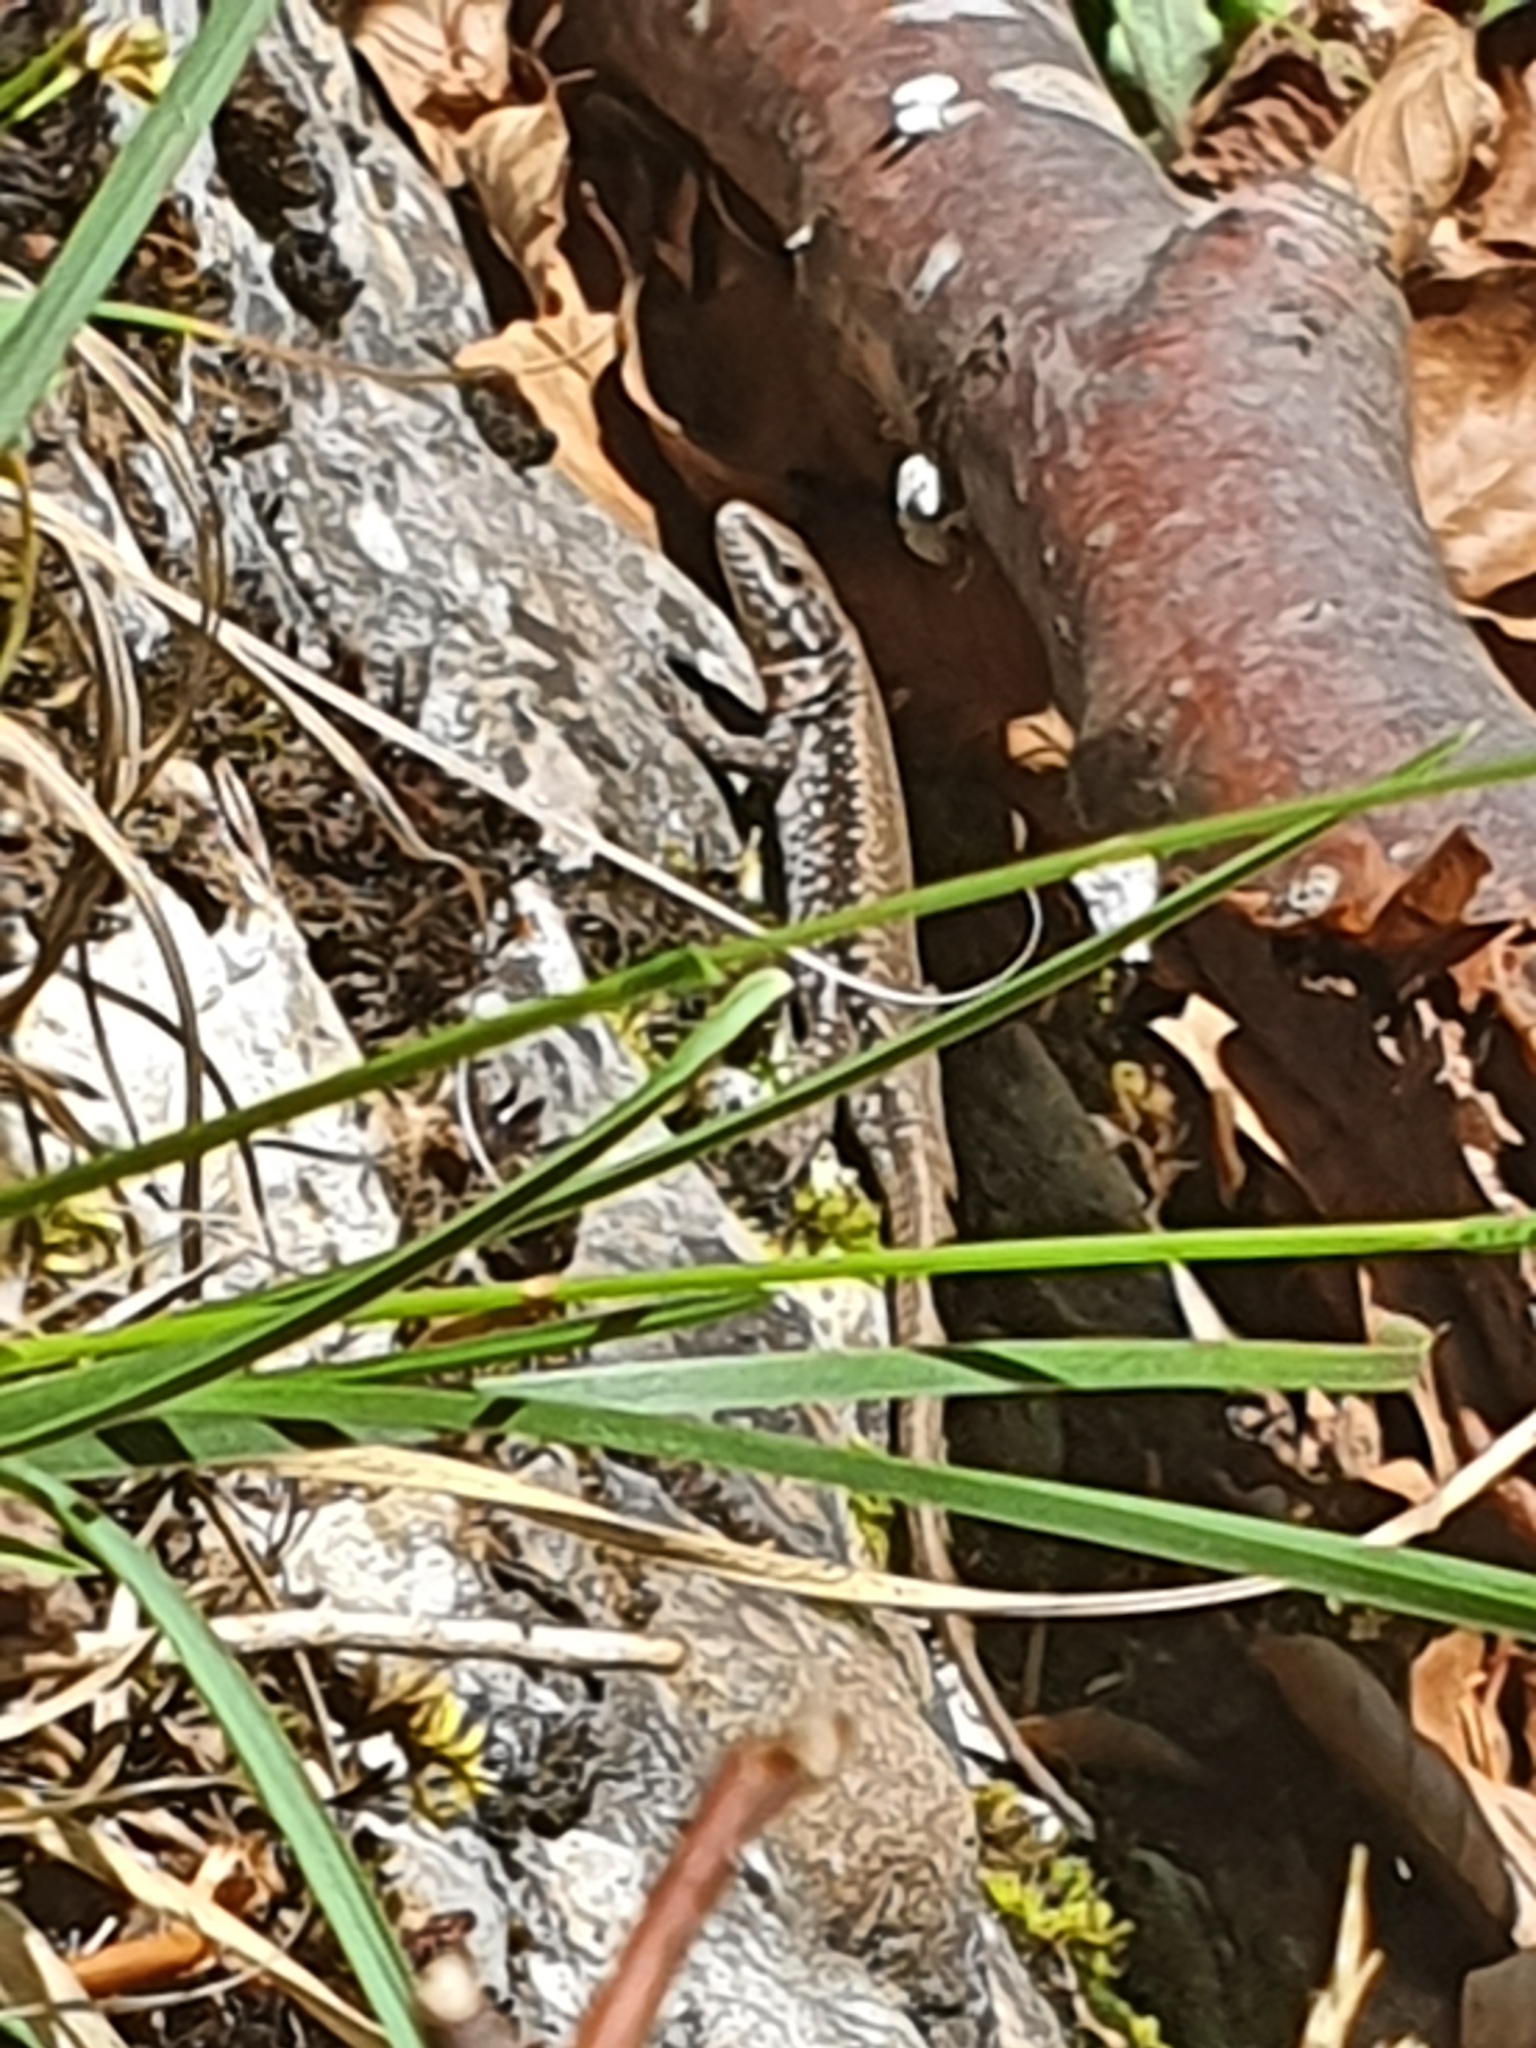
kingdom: Animalia
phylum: Chordata
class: Squamata
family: Lacertidae
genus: Podarcis
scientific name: Podarcis muralis
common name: Common wall lizard
